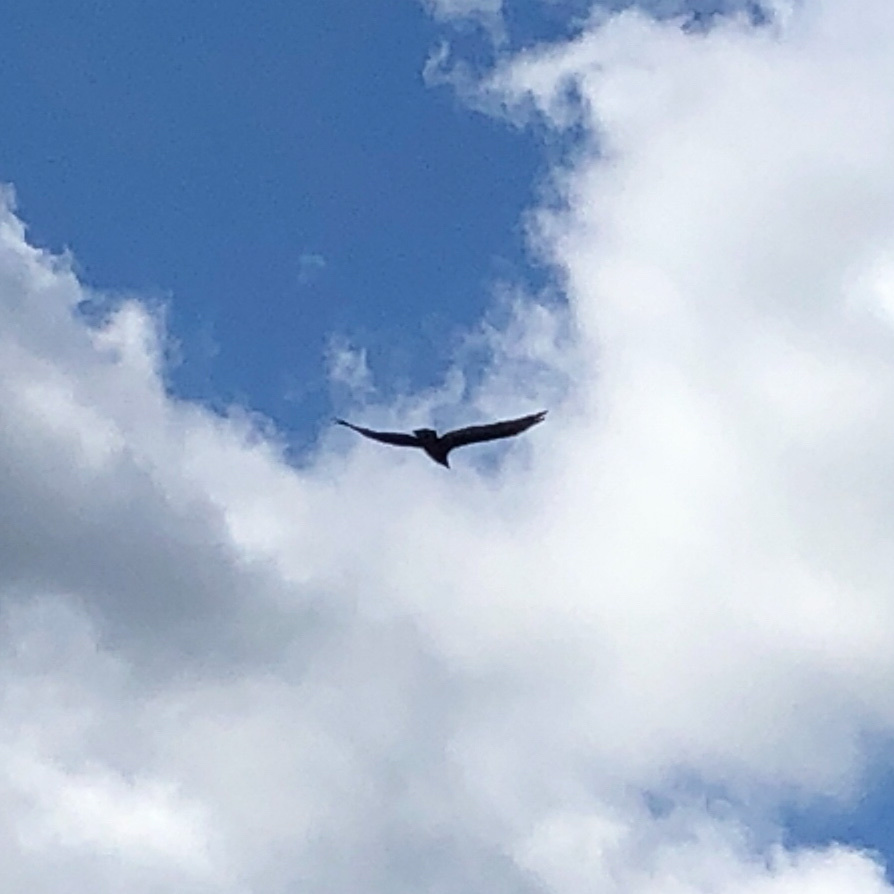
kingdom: Animalia
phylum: Chordata
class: Aves
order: Accipitriformes
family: Cathartidae
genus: Cathartes
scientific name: Cathartes aura
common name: Turkey vulture
